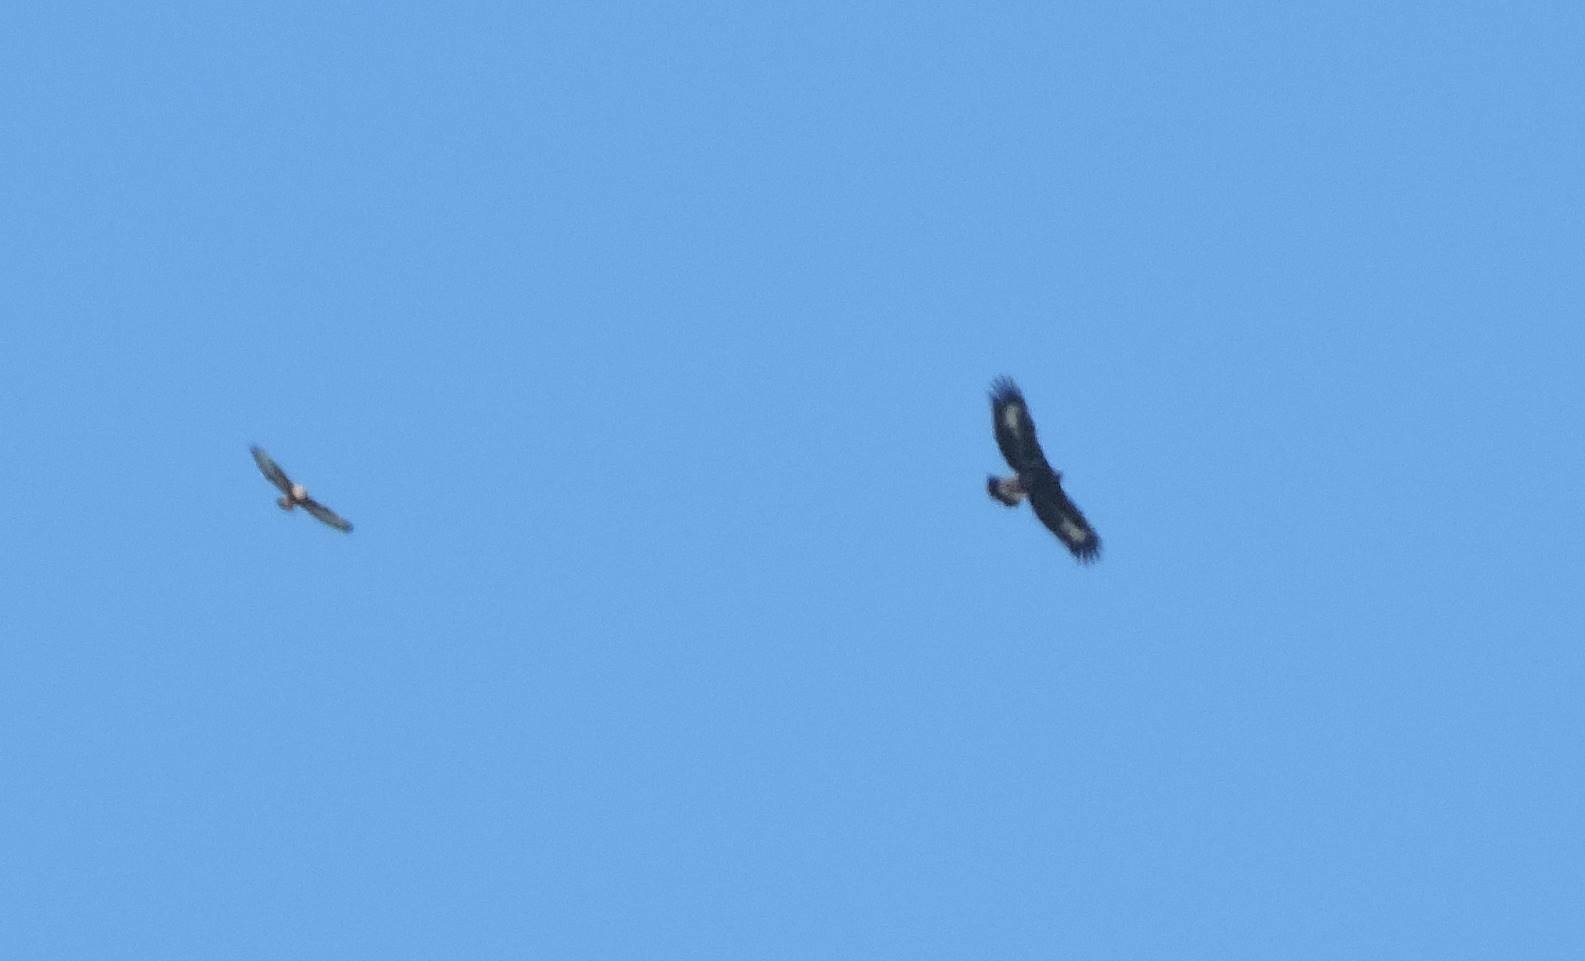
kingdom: Animalia
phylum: Chordata
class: Aves
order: Accipitriformes
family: Accipitridae
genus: Aquila
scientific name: Aquila chrysaetos
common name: Golden eagle
